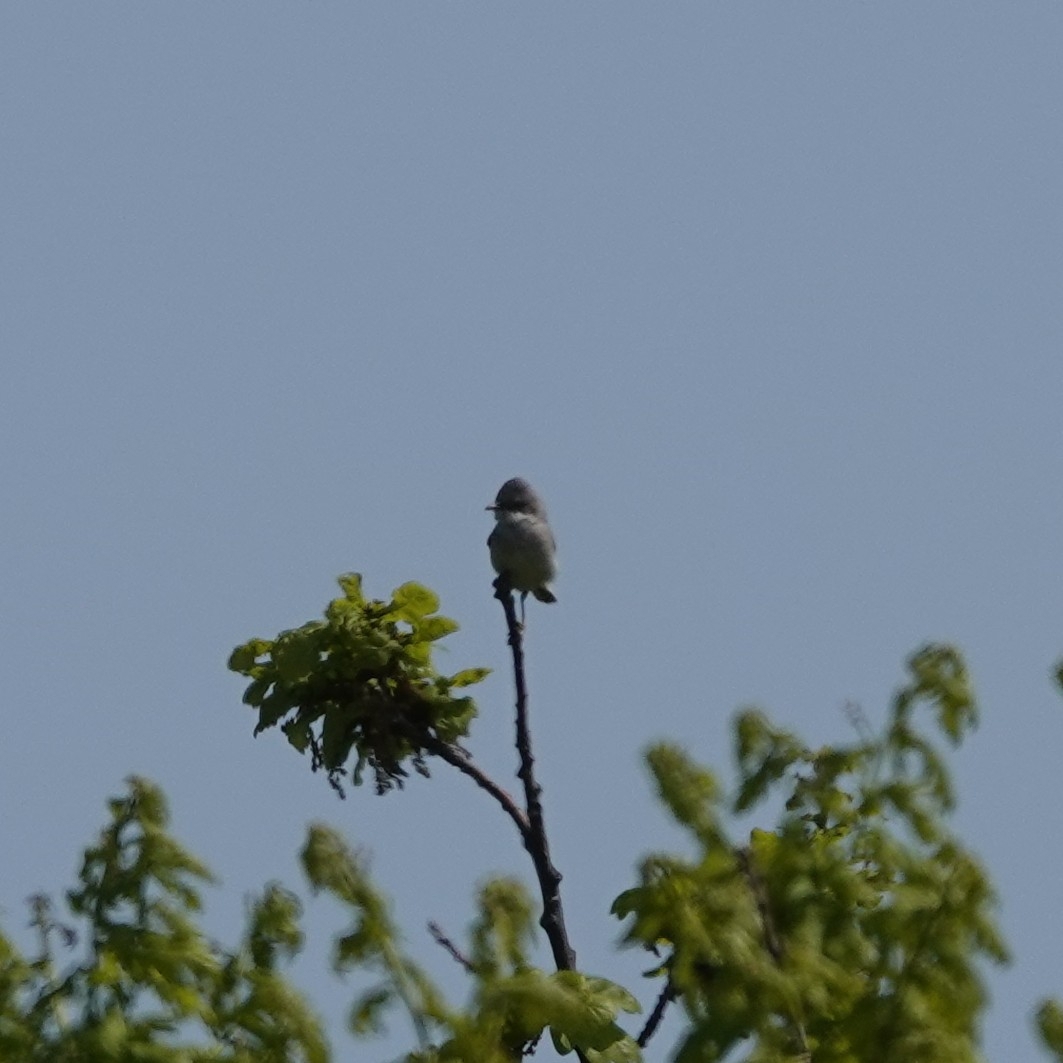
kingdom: Animalia
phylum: Chordata
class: Aves
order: Passeriformes
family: Sylviidae
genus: Sylvia
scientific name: Sylvia communis
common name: Common whitethroat
